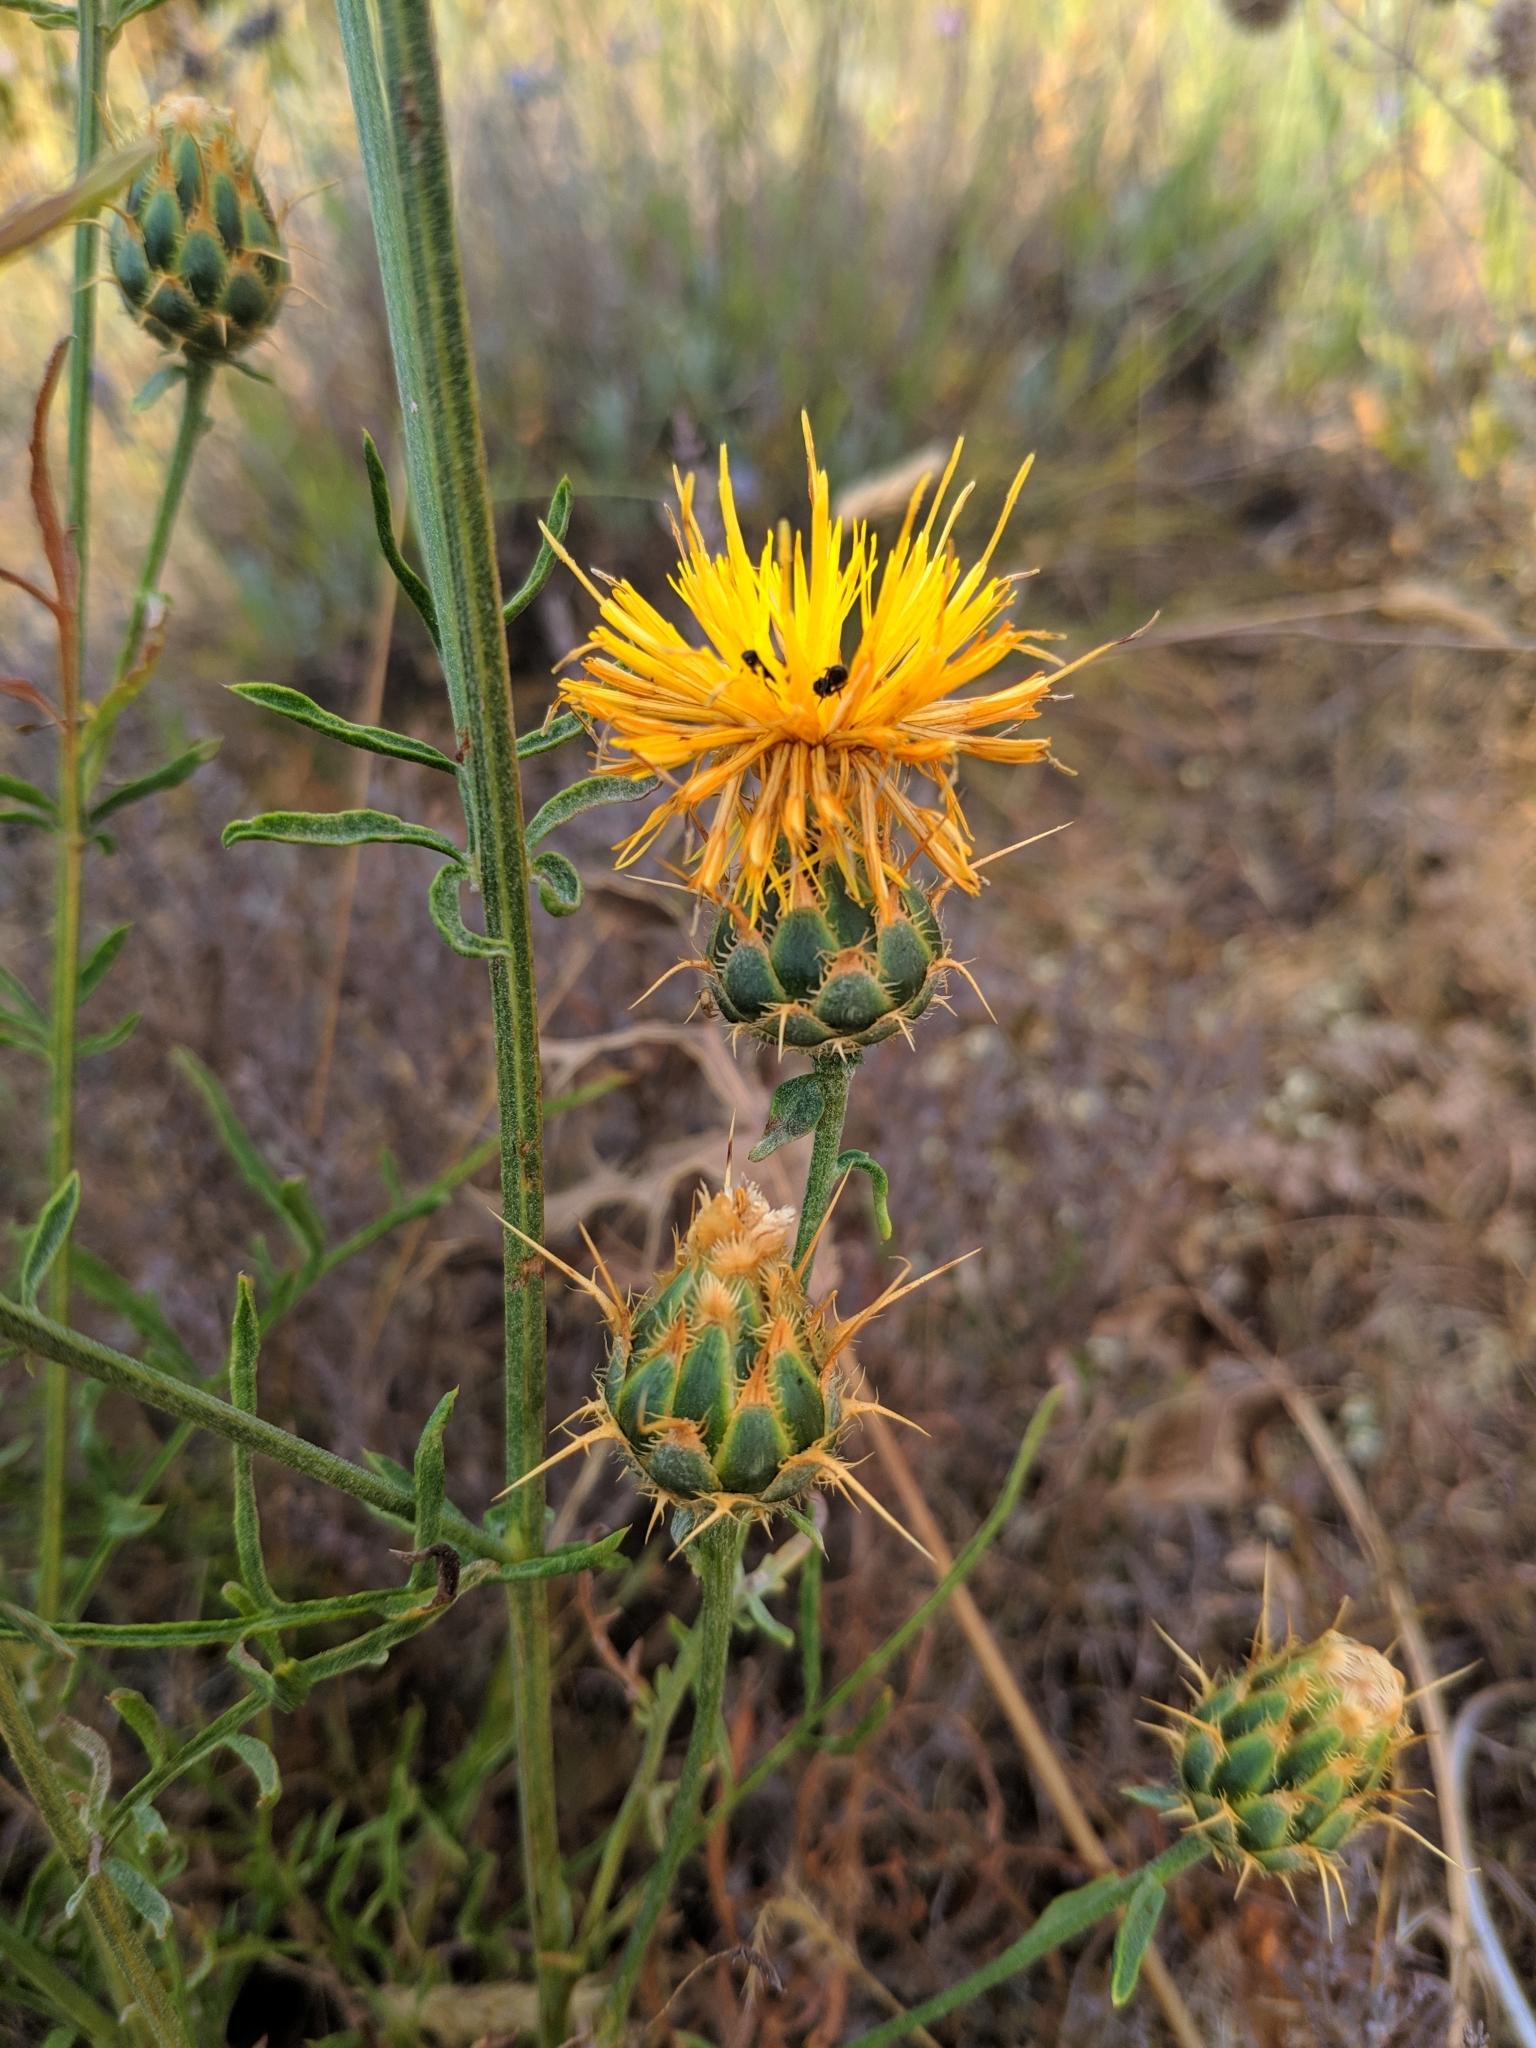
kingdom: Plantae
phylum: Tracheophyta
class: Magnoliopsida
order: Asterales
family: Asteraceae
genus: Centaurea
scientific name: Centaurea ornata
